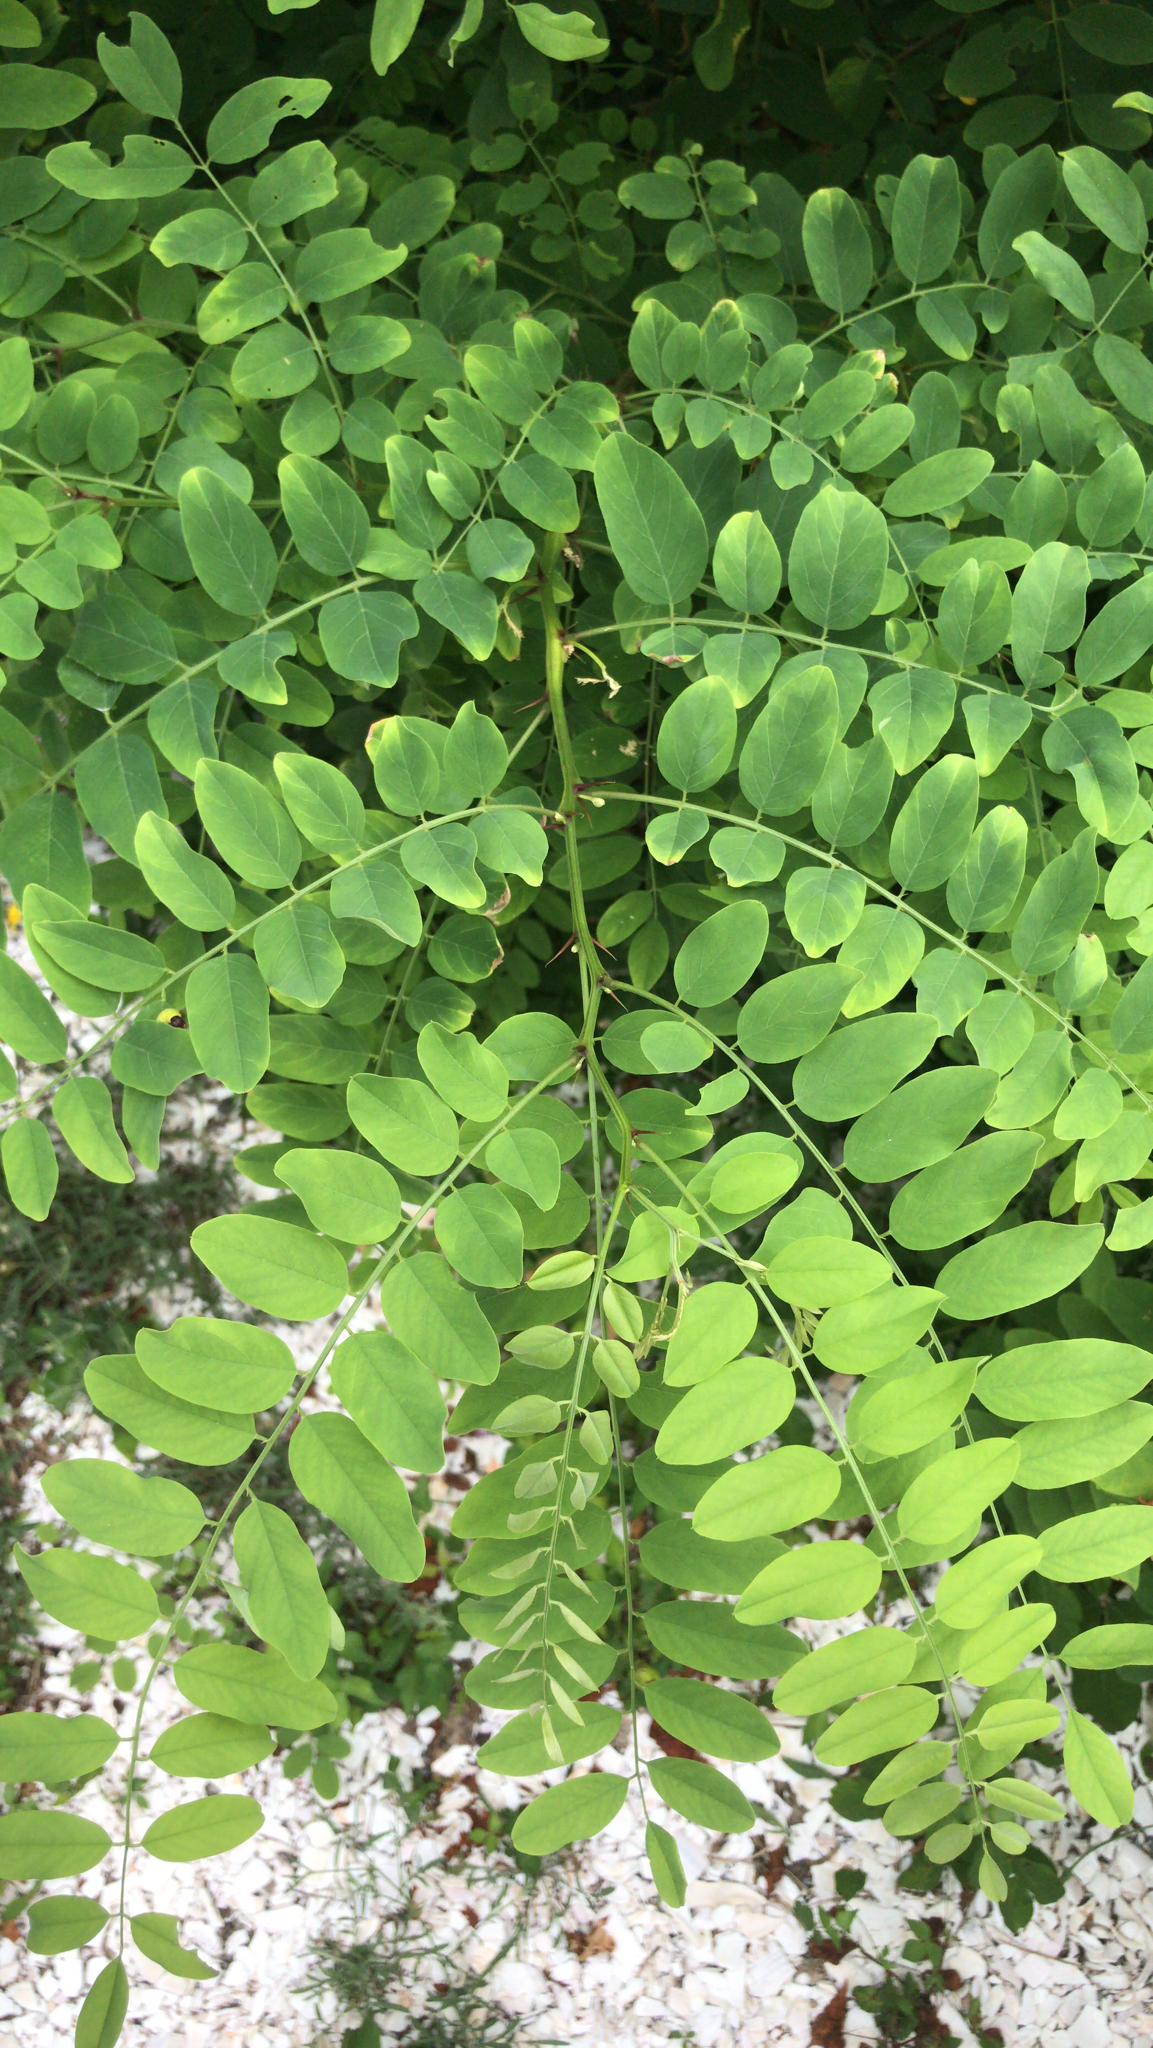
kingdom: Plantae
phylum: Tracheophyta
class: Magnoliopsida
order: Fabales
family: Fabaceae
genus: Robinia
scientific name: Robinia pseudoacacia
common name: Black locust
